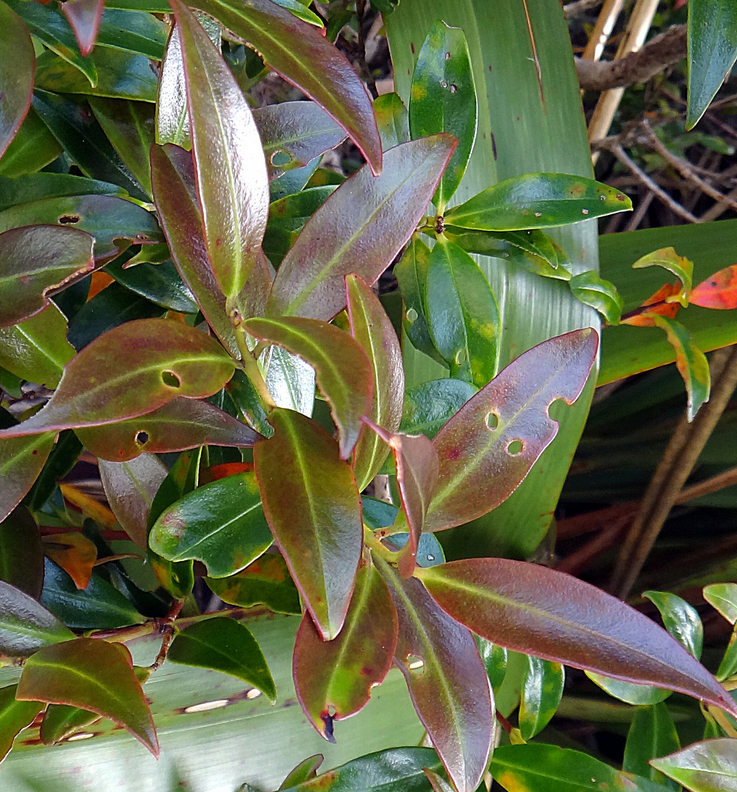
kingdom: Plantae
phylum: Tracheophyta
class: Magnoliopsida
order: Myrtales
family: Myrtaceae
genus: Metrosideros
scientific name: Metrosideros umbellata
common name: Southern rata
